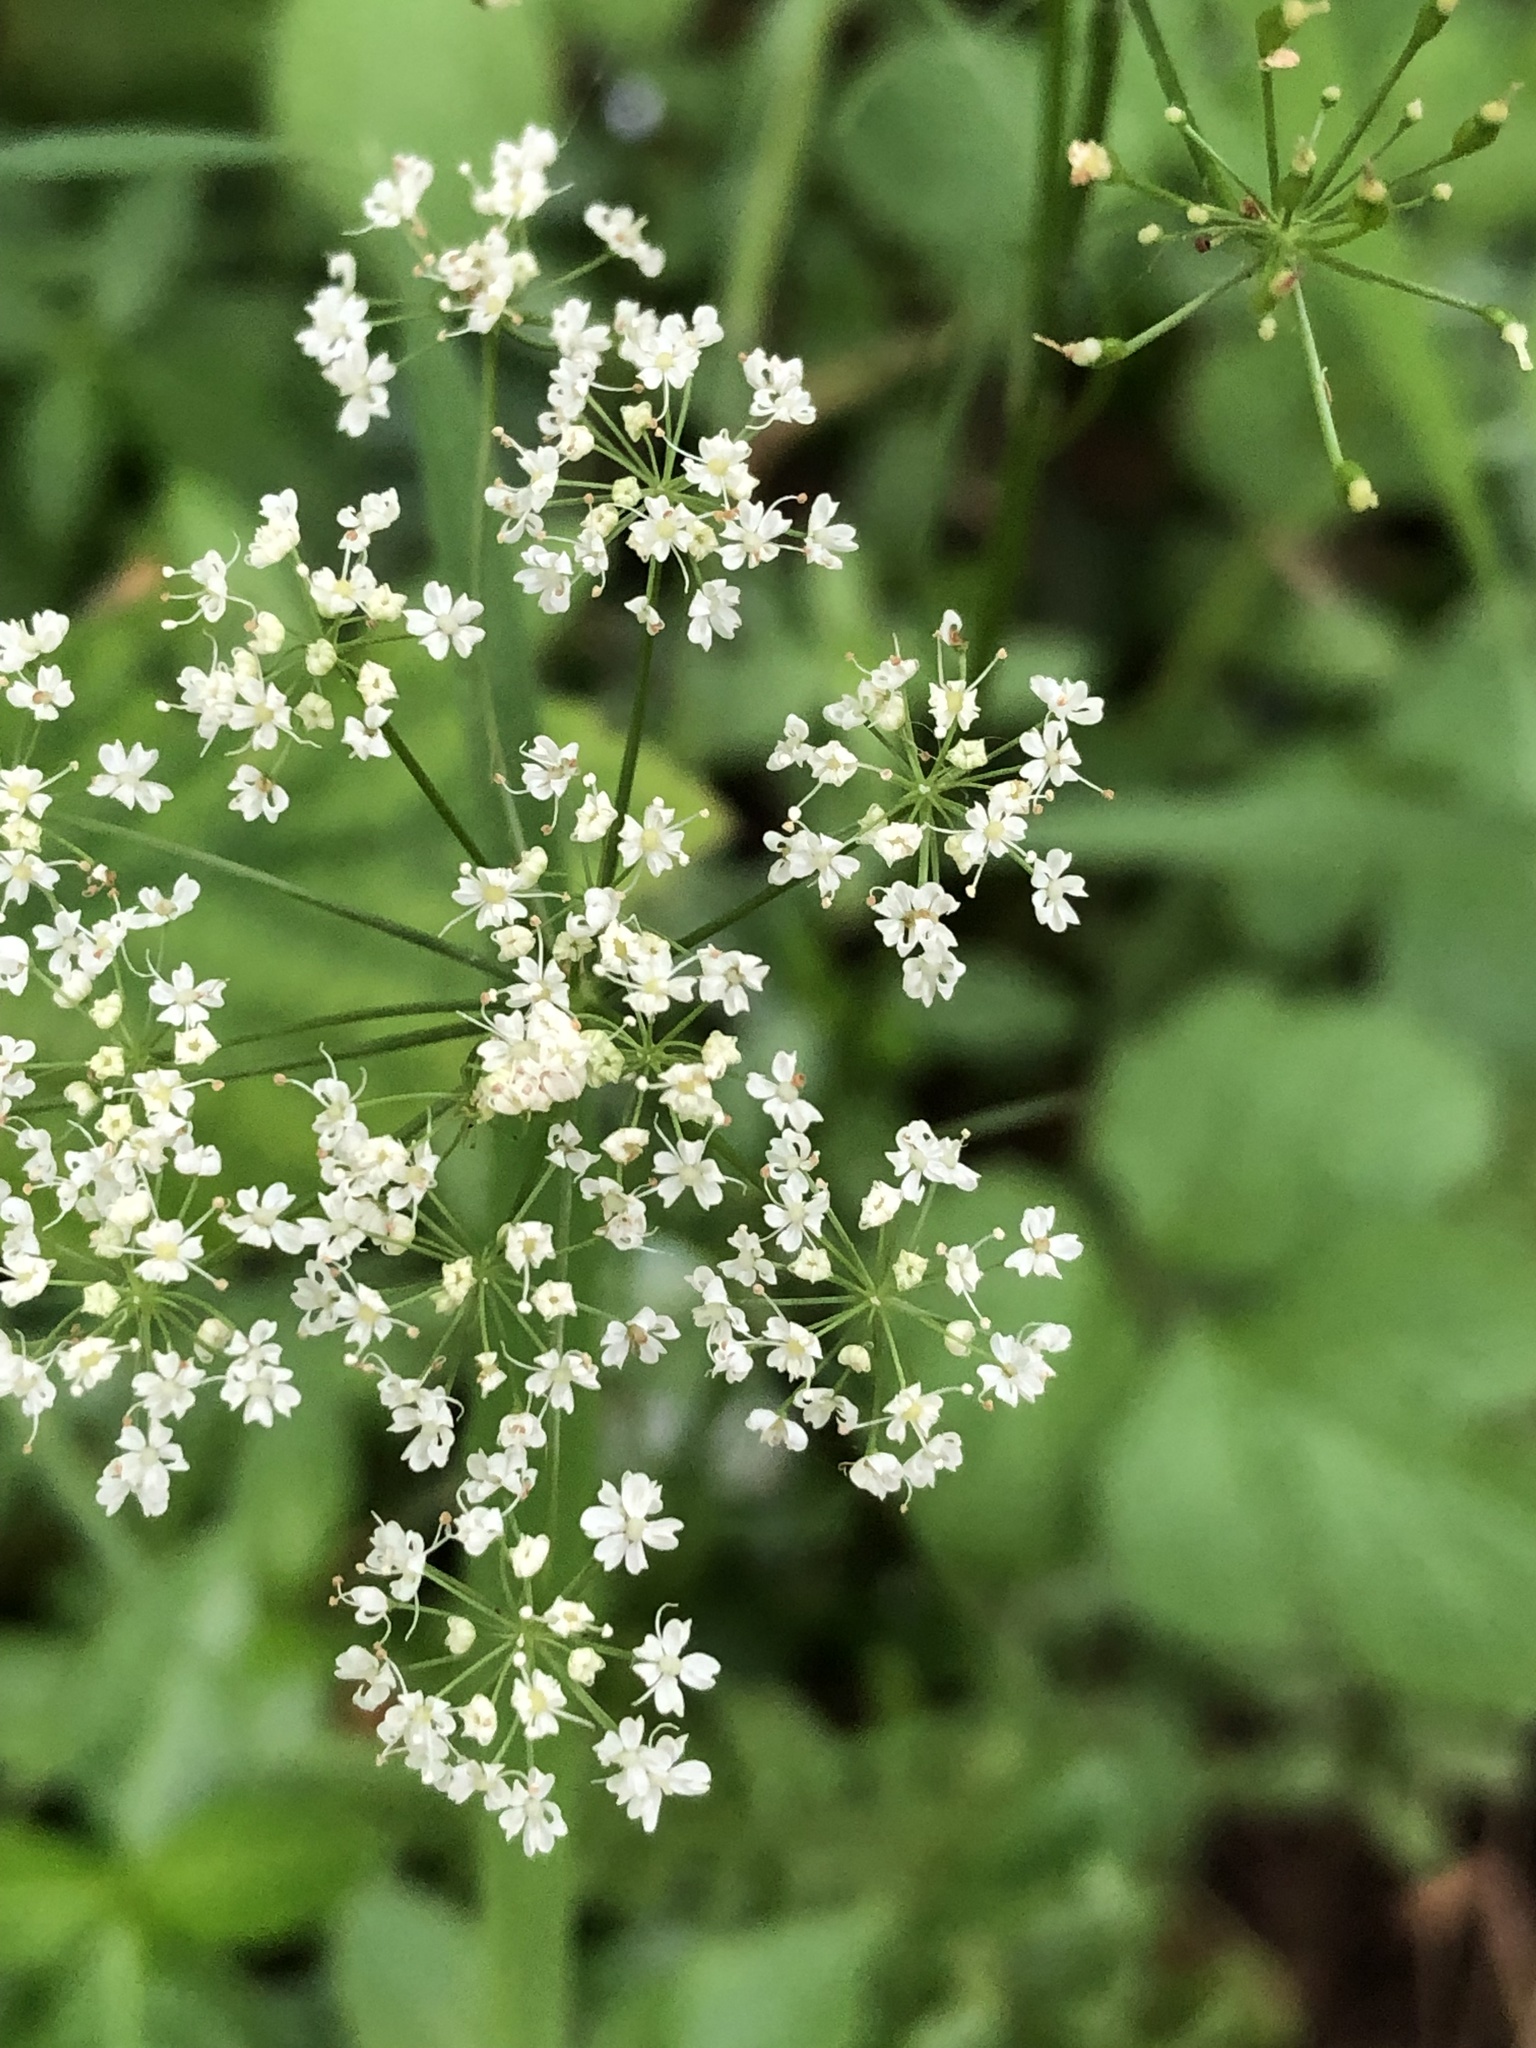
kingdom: Plantae
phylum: Tracheophyta
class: Magnoliopsida
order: Apiales
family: Apiaceae
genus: Conopodium
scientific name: Conopodium majus
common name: Pignut
